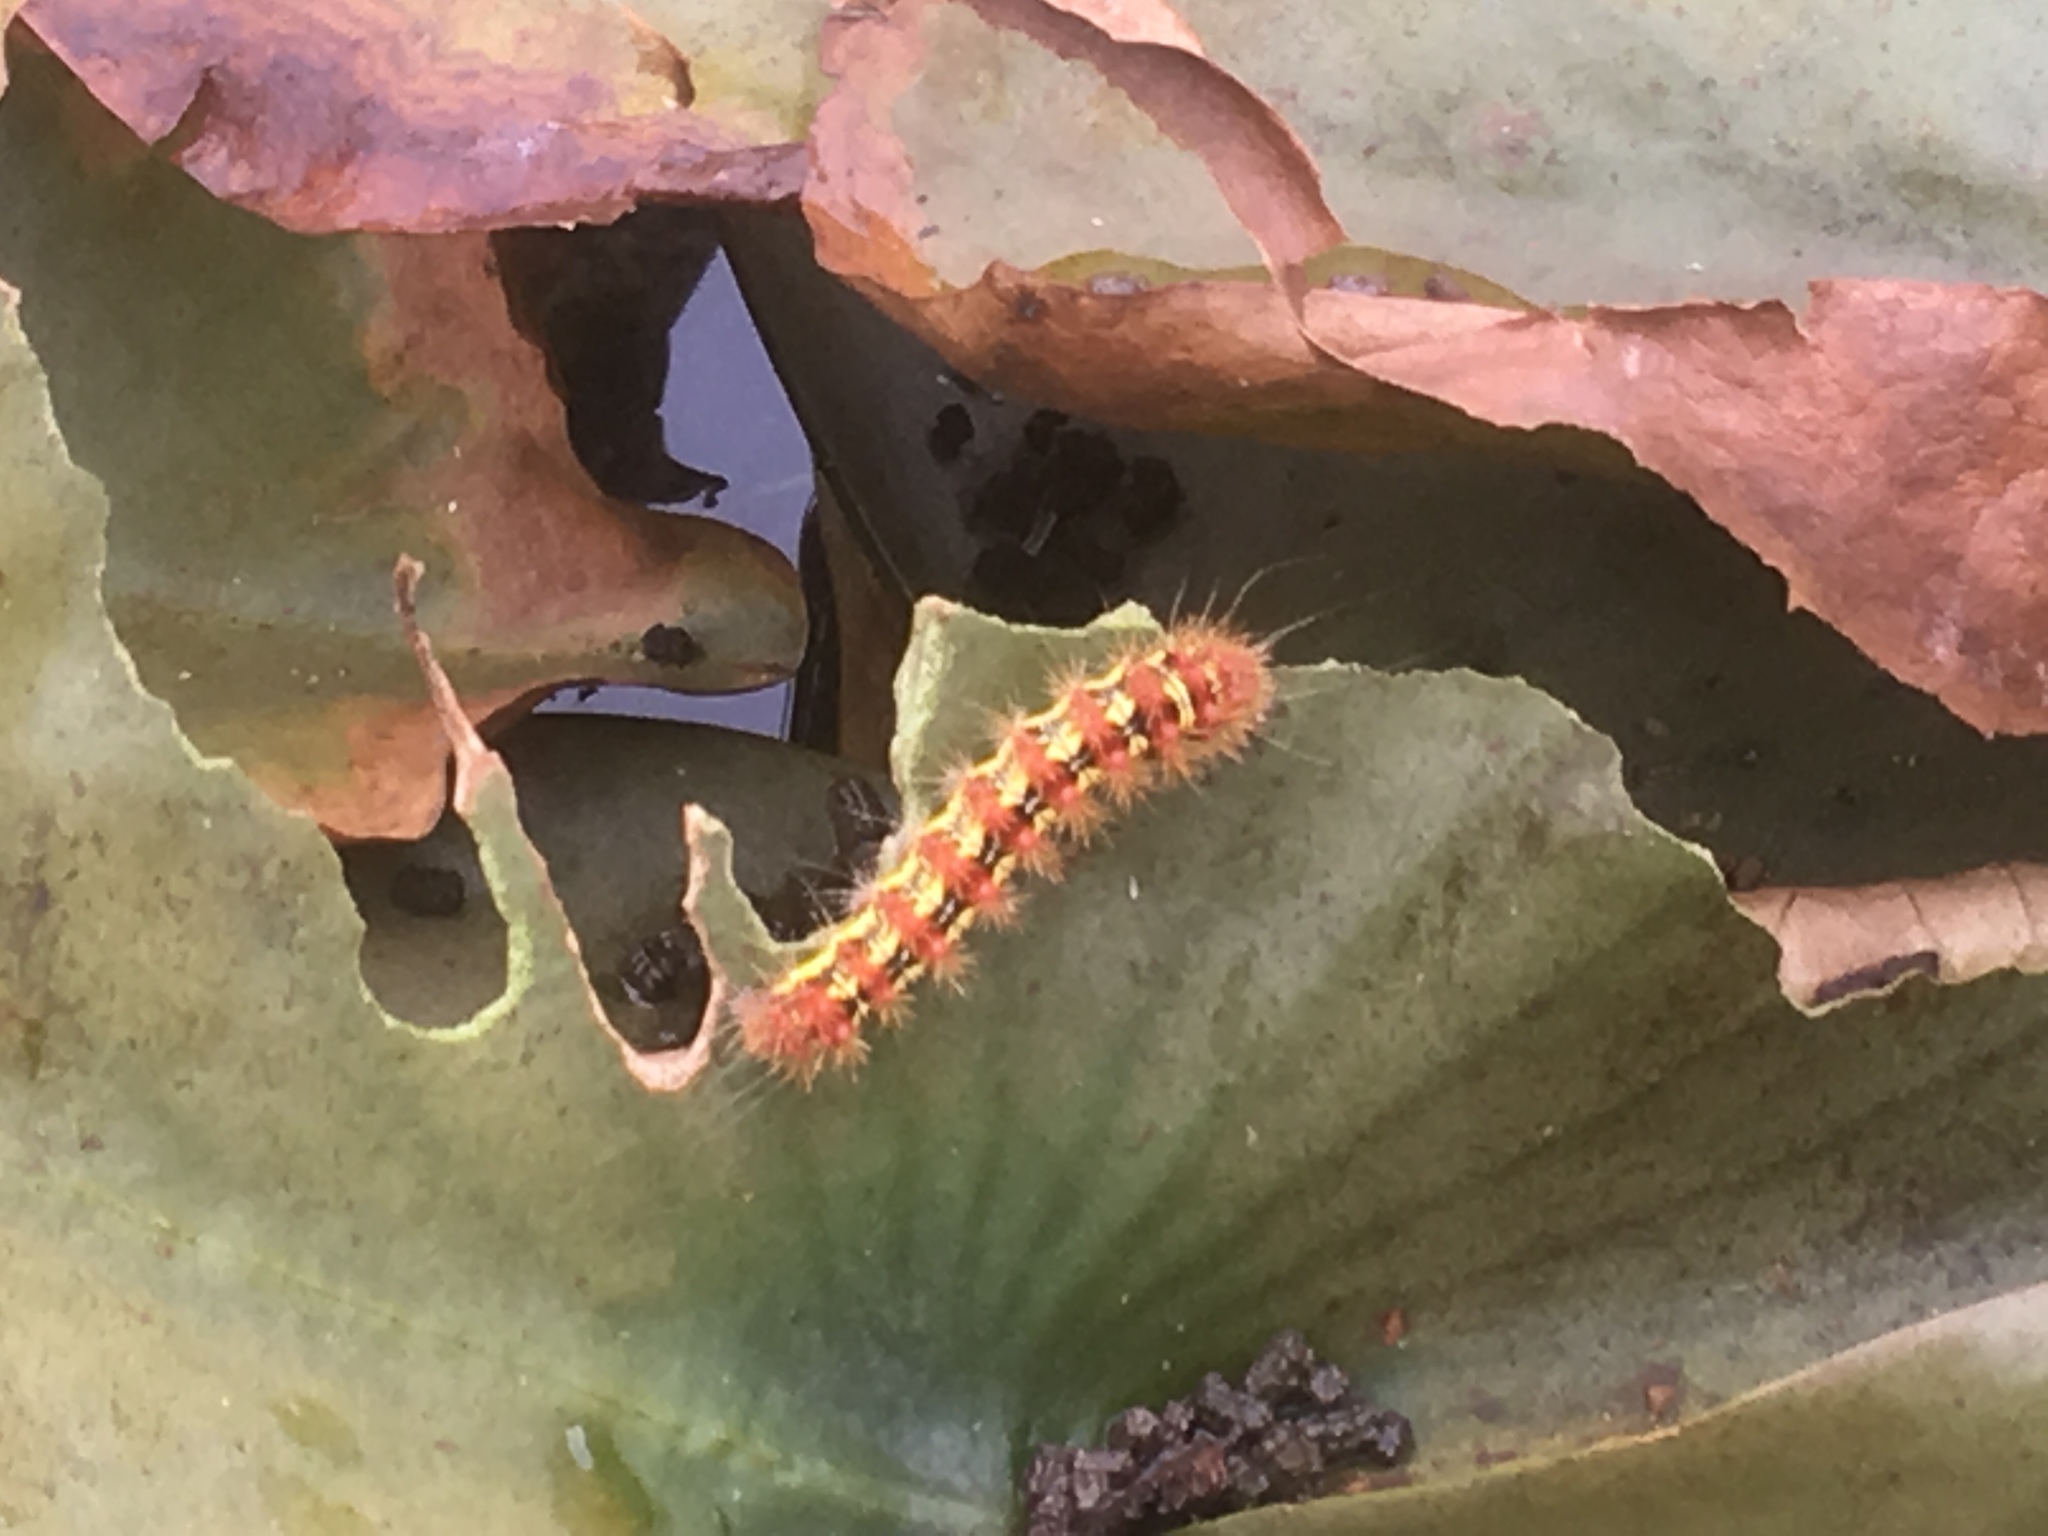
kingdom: Animalia
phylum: Arthropoda
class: Insecta
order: Lepidoptera
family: Noctuidae
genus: Acronicta
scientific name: Acronicta oblinita
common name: Smeared dagger
